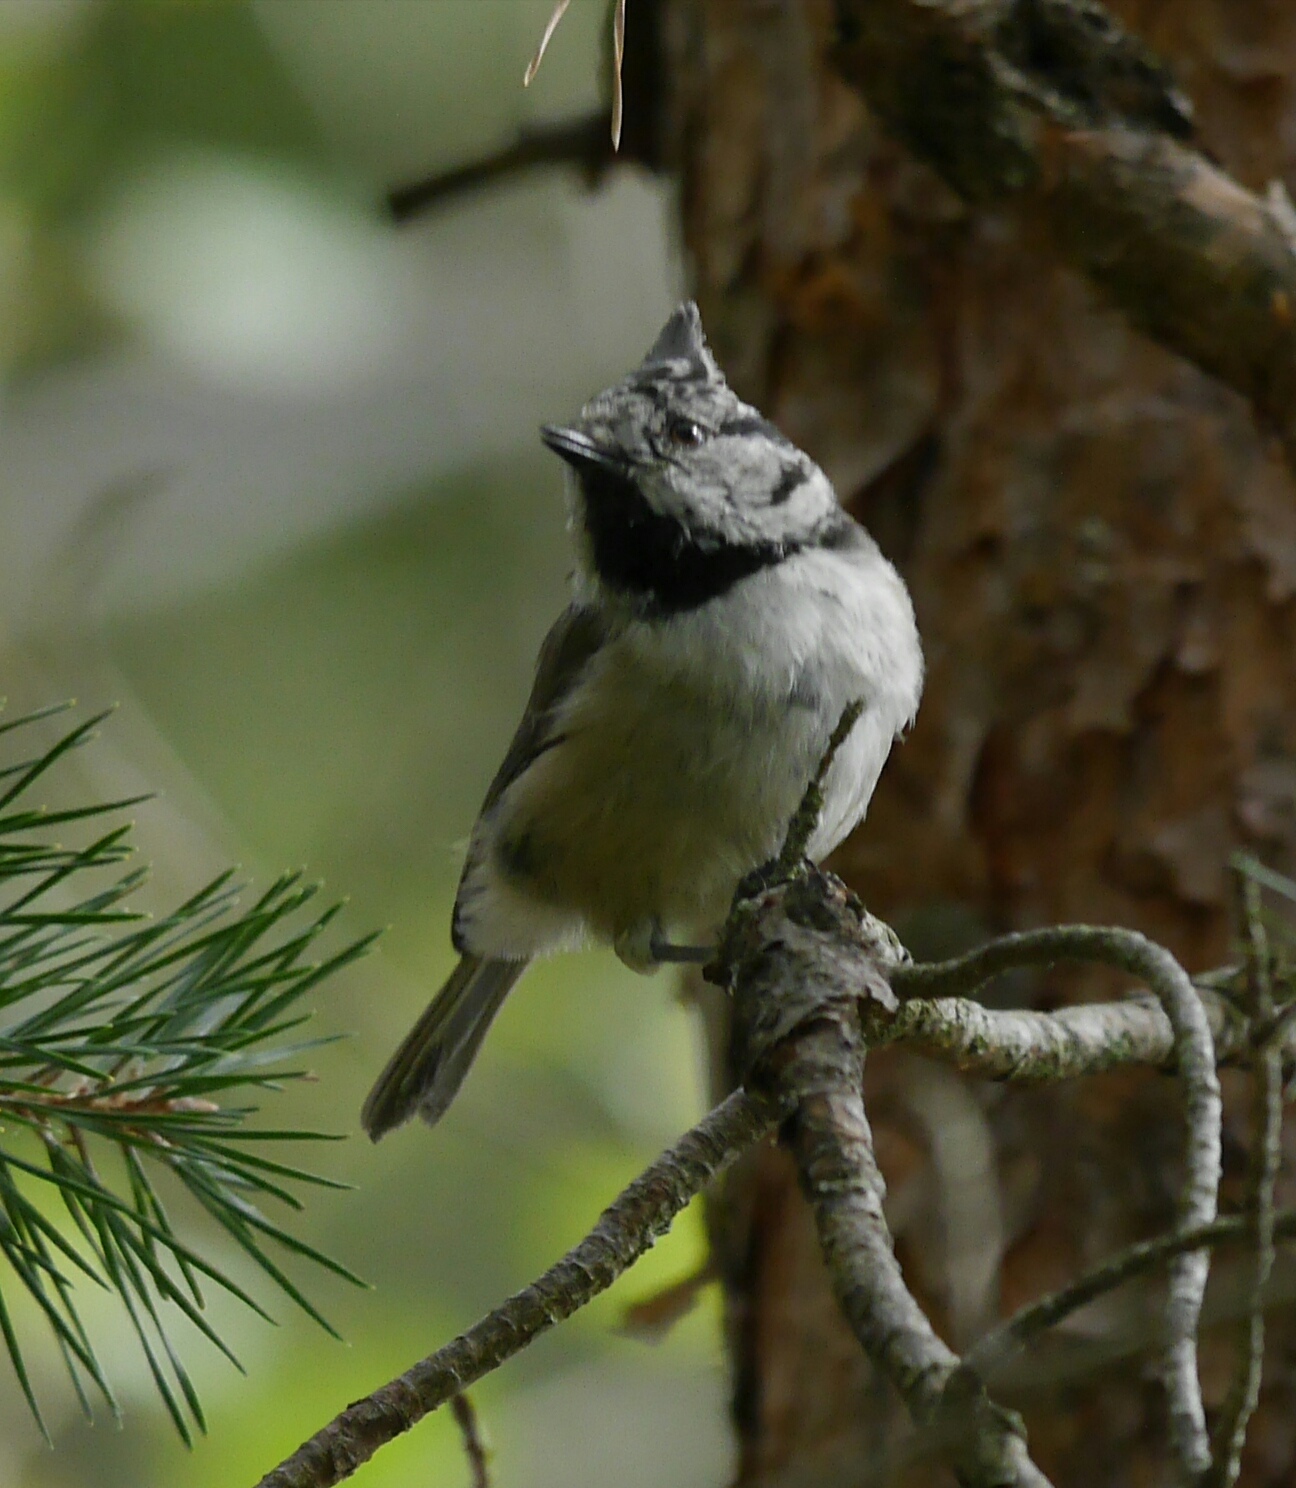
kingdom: Animalia
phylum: Chordata
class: Aves
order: Passeriformes
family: Paridae
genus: Lophophanes
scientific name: Lophophanes cristatus
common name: European crested tit
